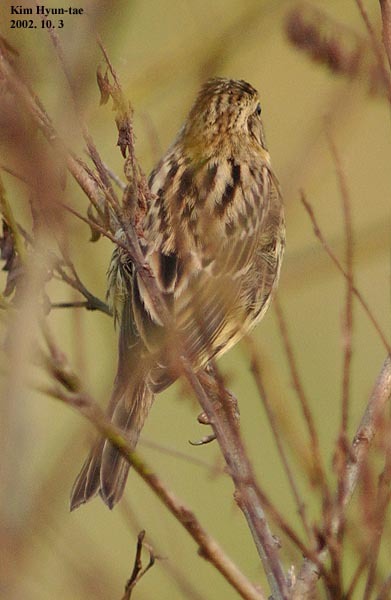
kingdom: Animalia
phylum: Chordata
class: Aves
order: Passeriformes
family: Emberizidae
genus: Emberiza
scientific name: Emberiza spodocephala
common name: Black-faced bunting
